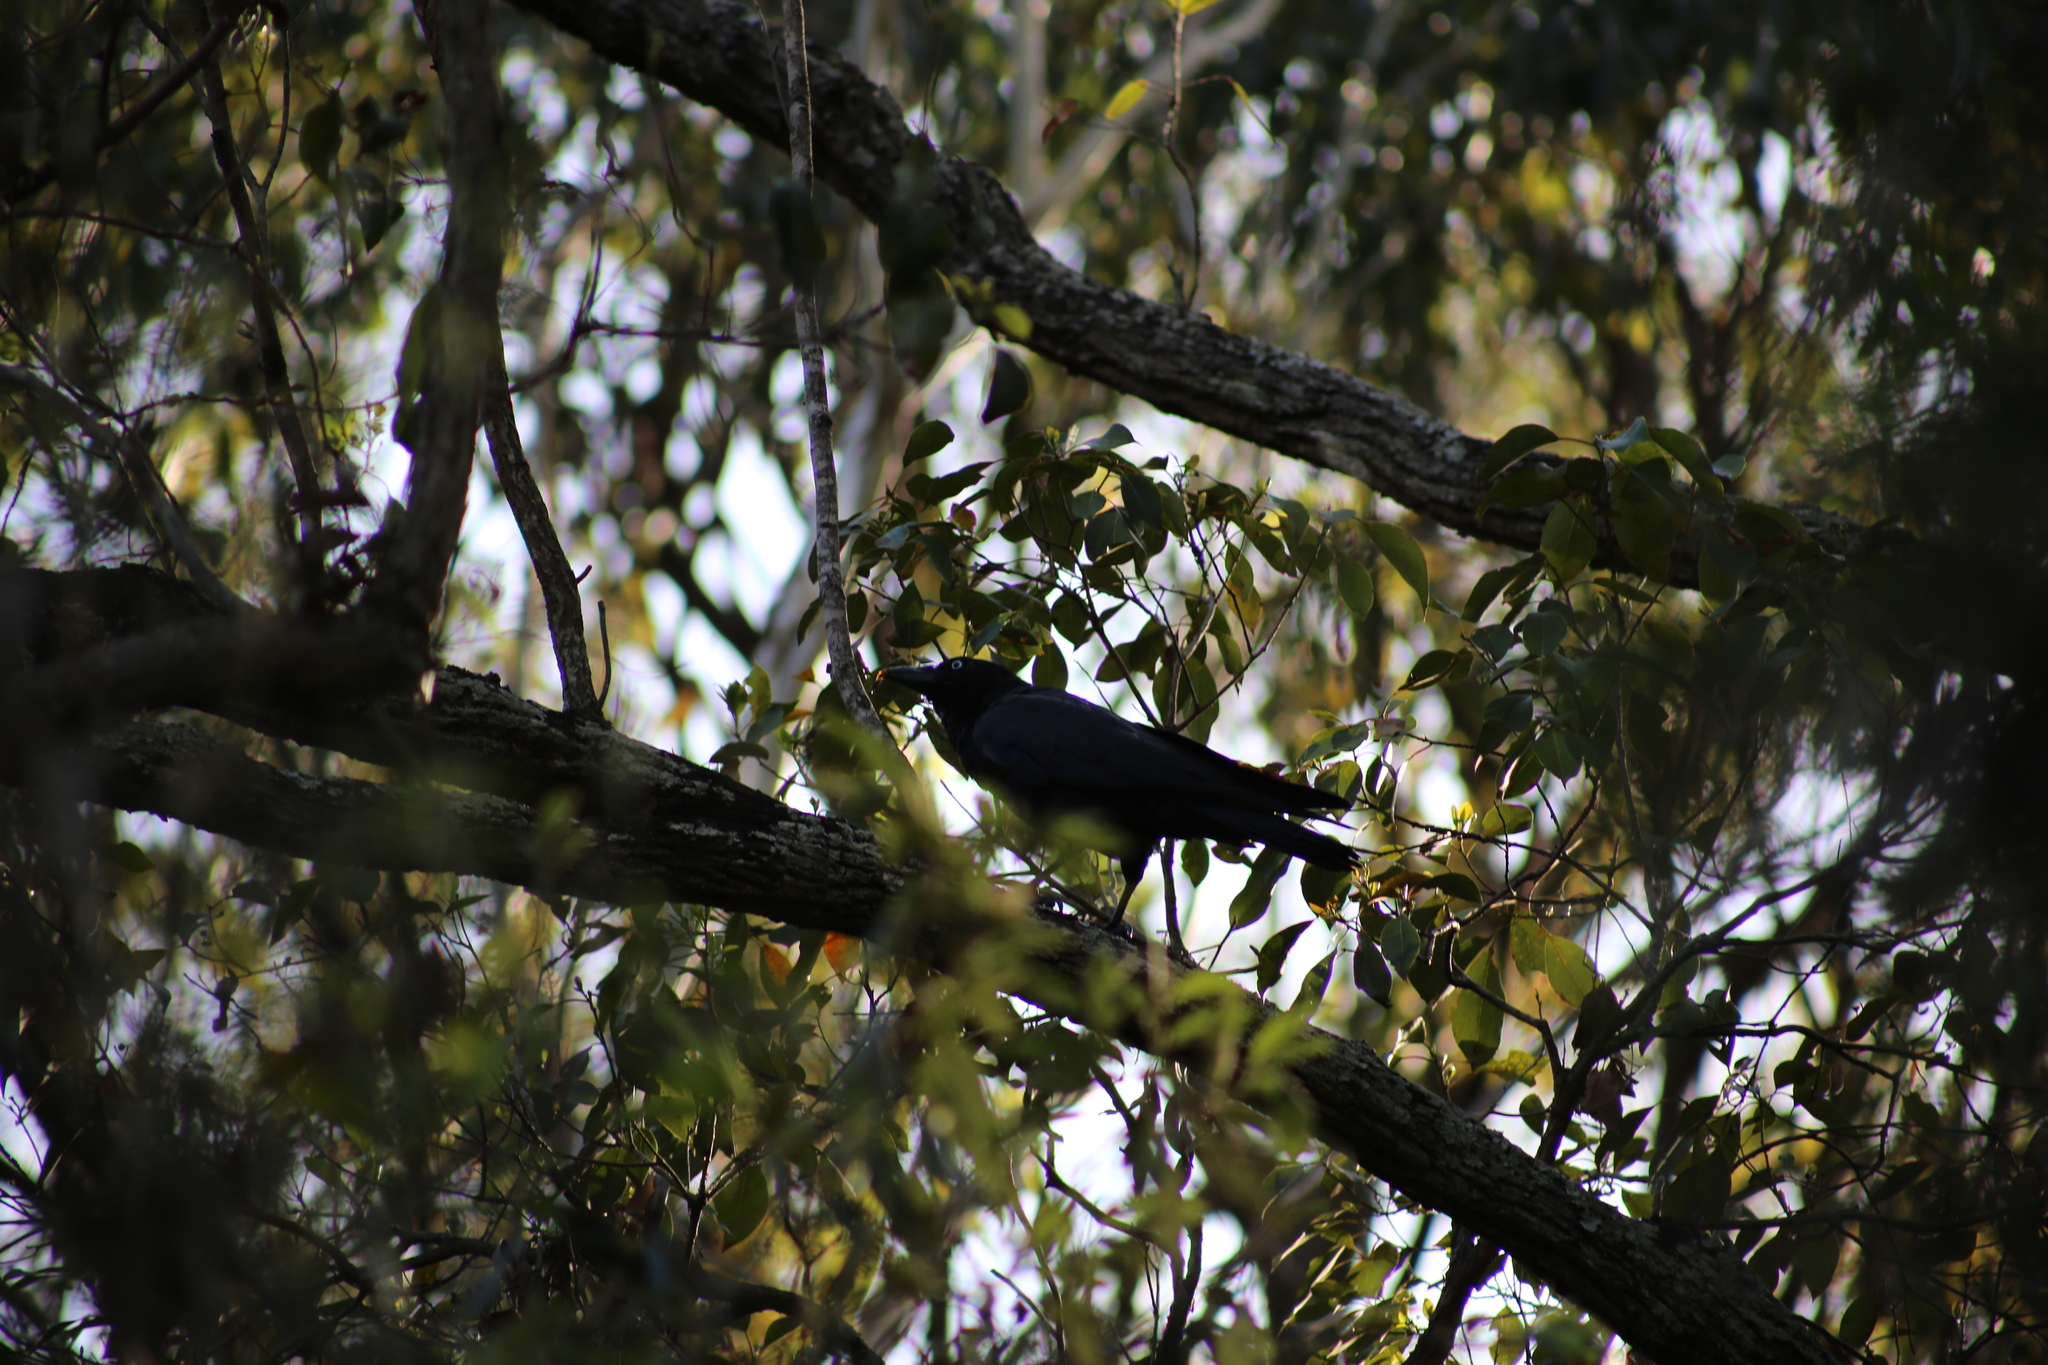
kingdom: Animalia
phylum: Chordata
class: Aves
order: Passeriformes
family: Corvidae
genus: Corvus
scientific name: Corvus orru
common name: Torresian crow
